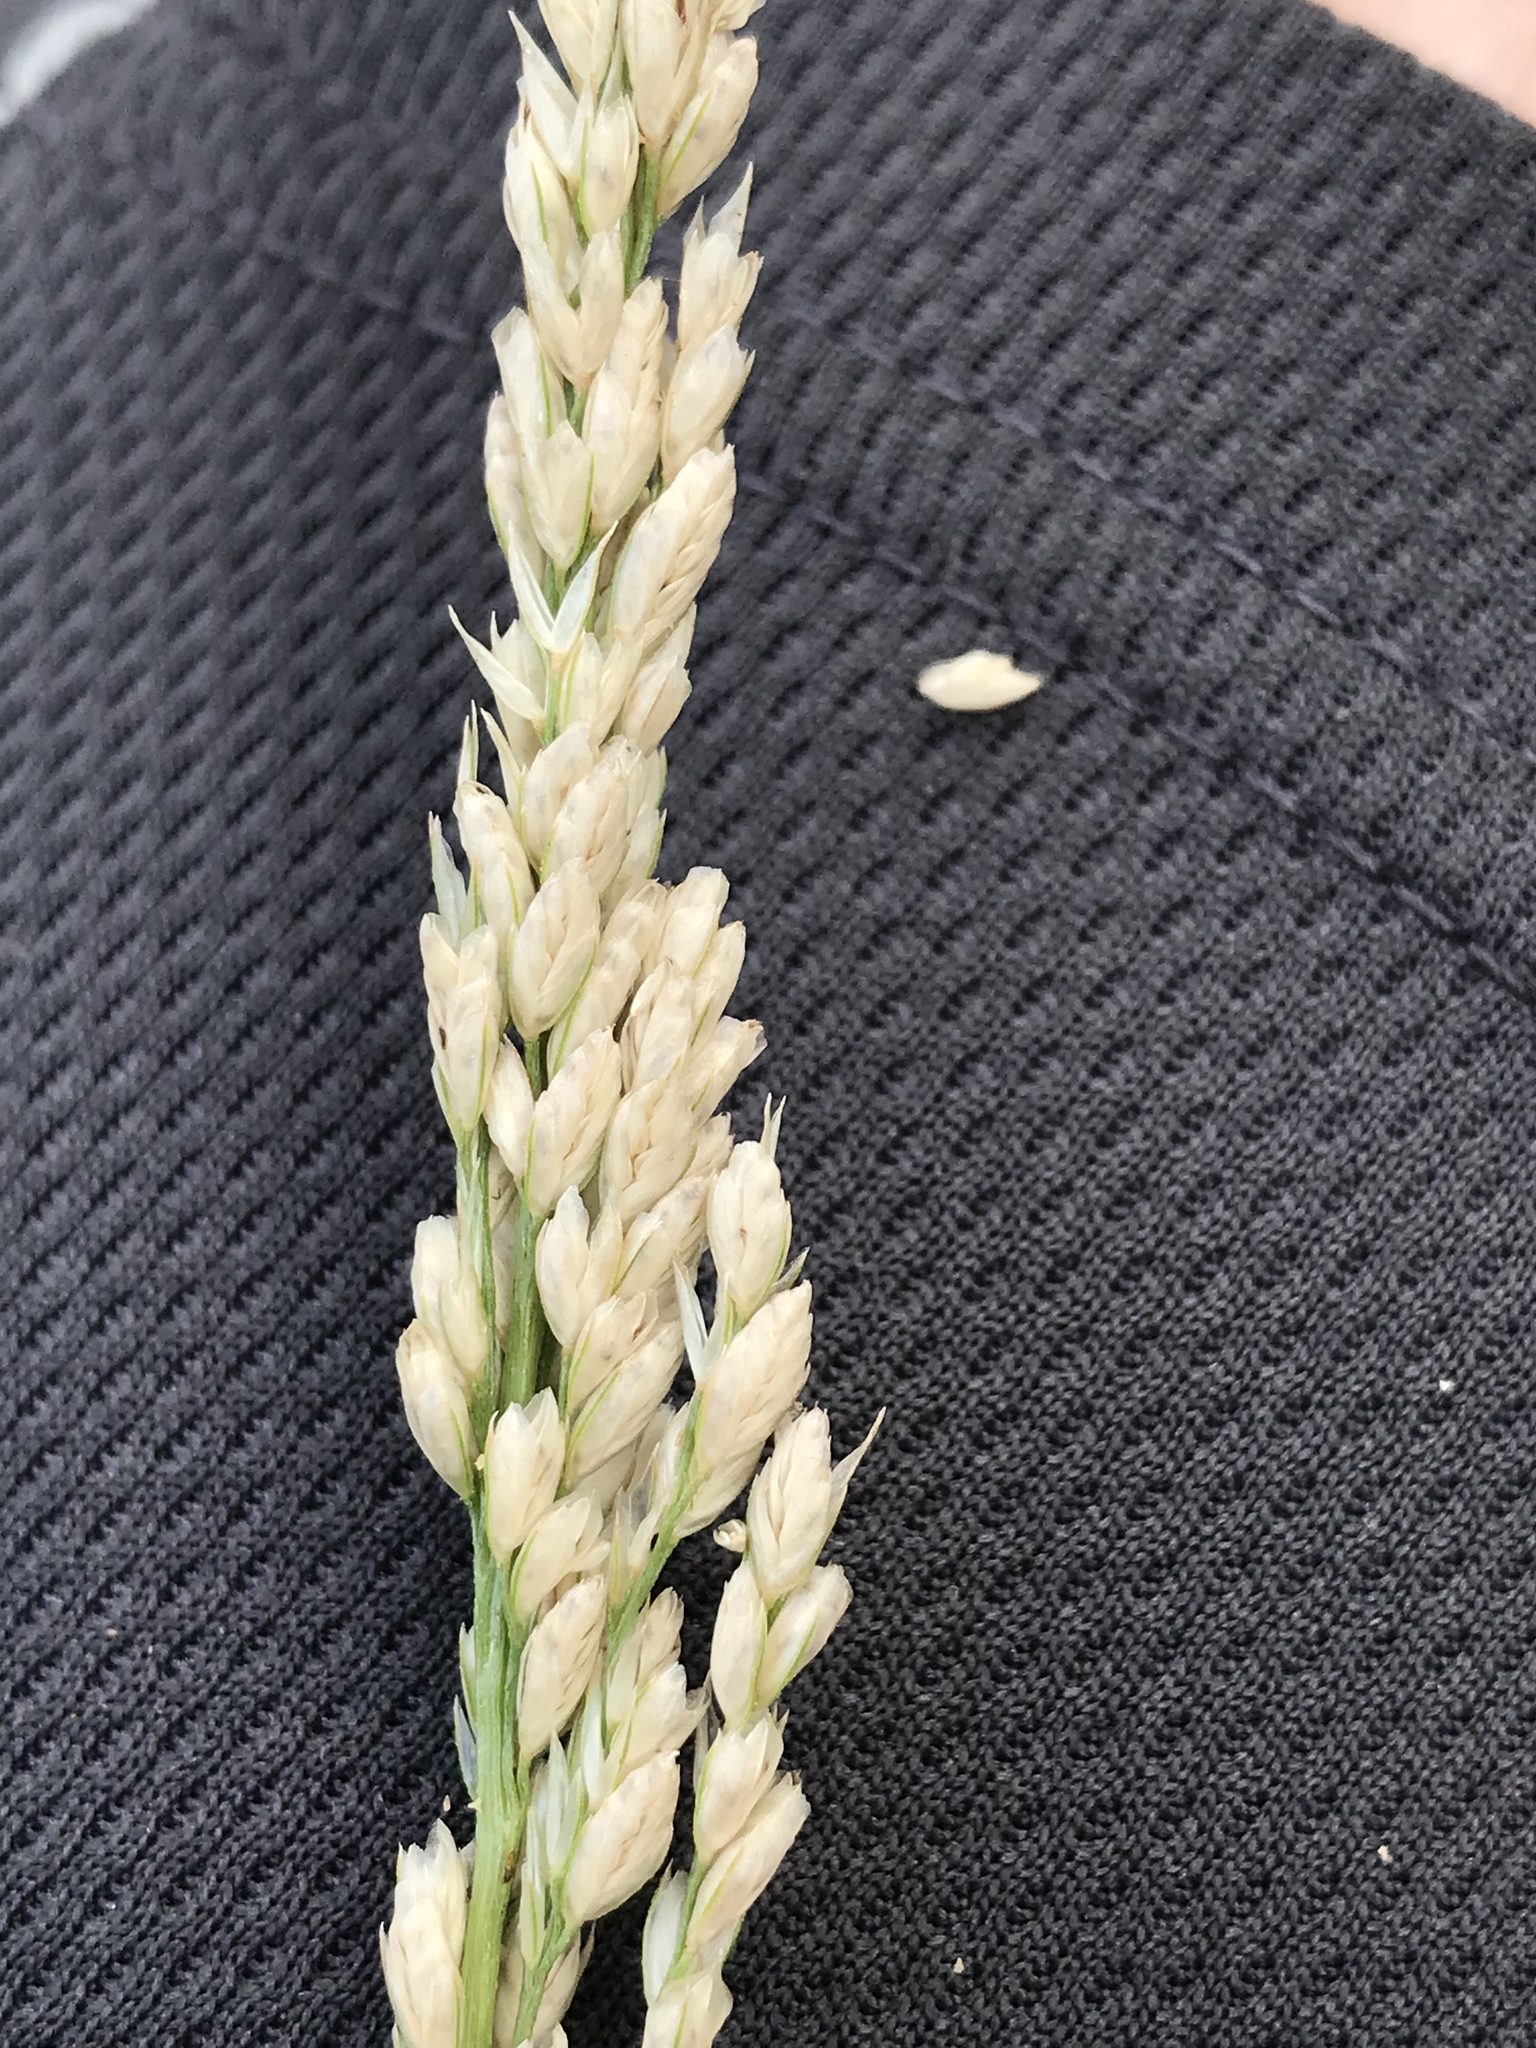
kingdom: Plantae
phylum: Tracheophyta
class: Liliopsida
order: Poales
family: Poaceae
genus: Tridens
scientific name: Tridens albescens
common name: White tridens
